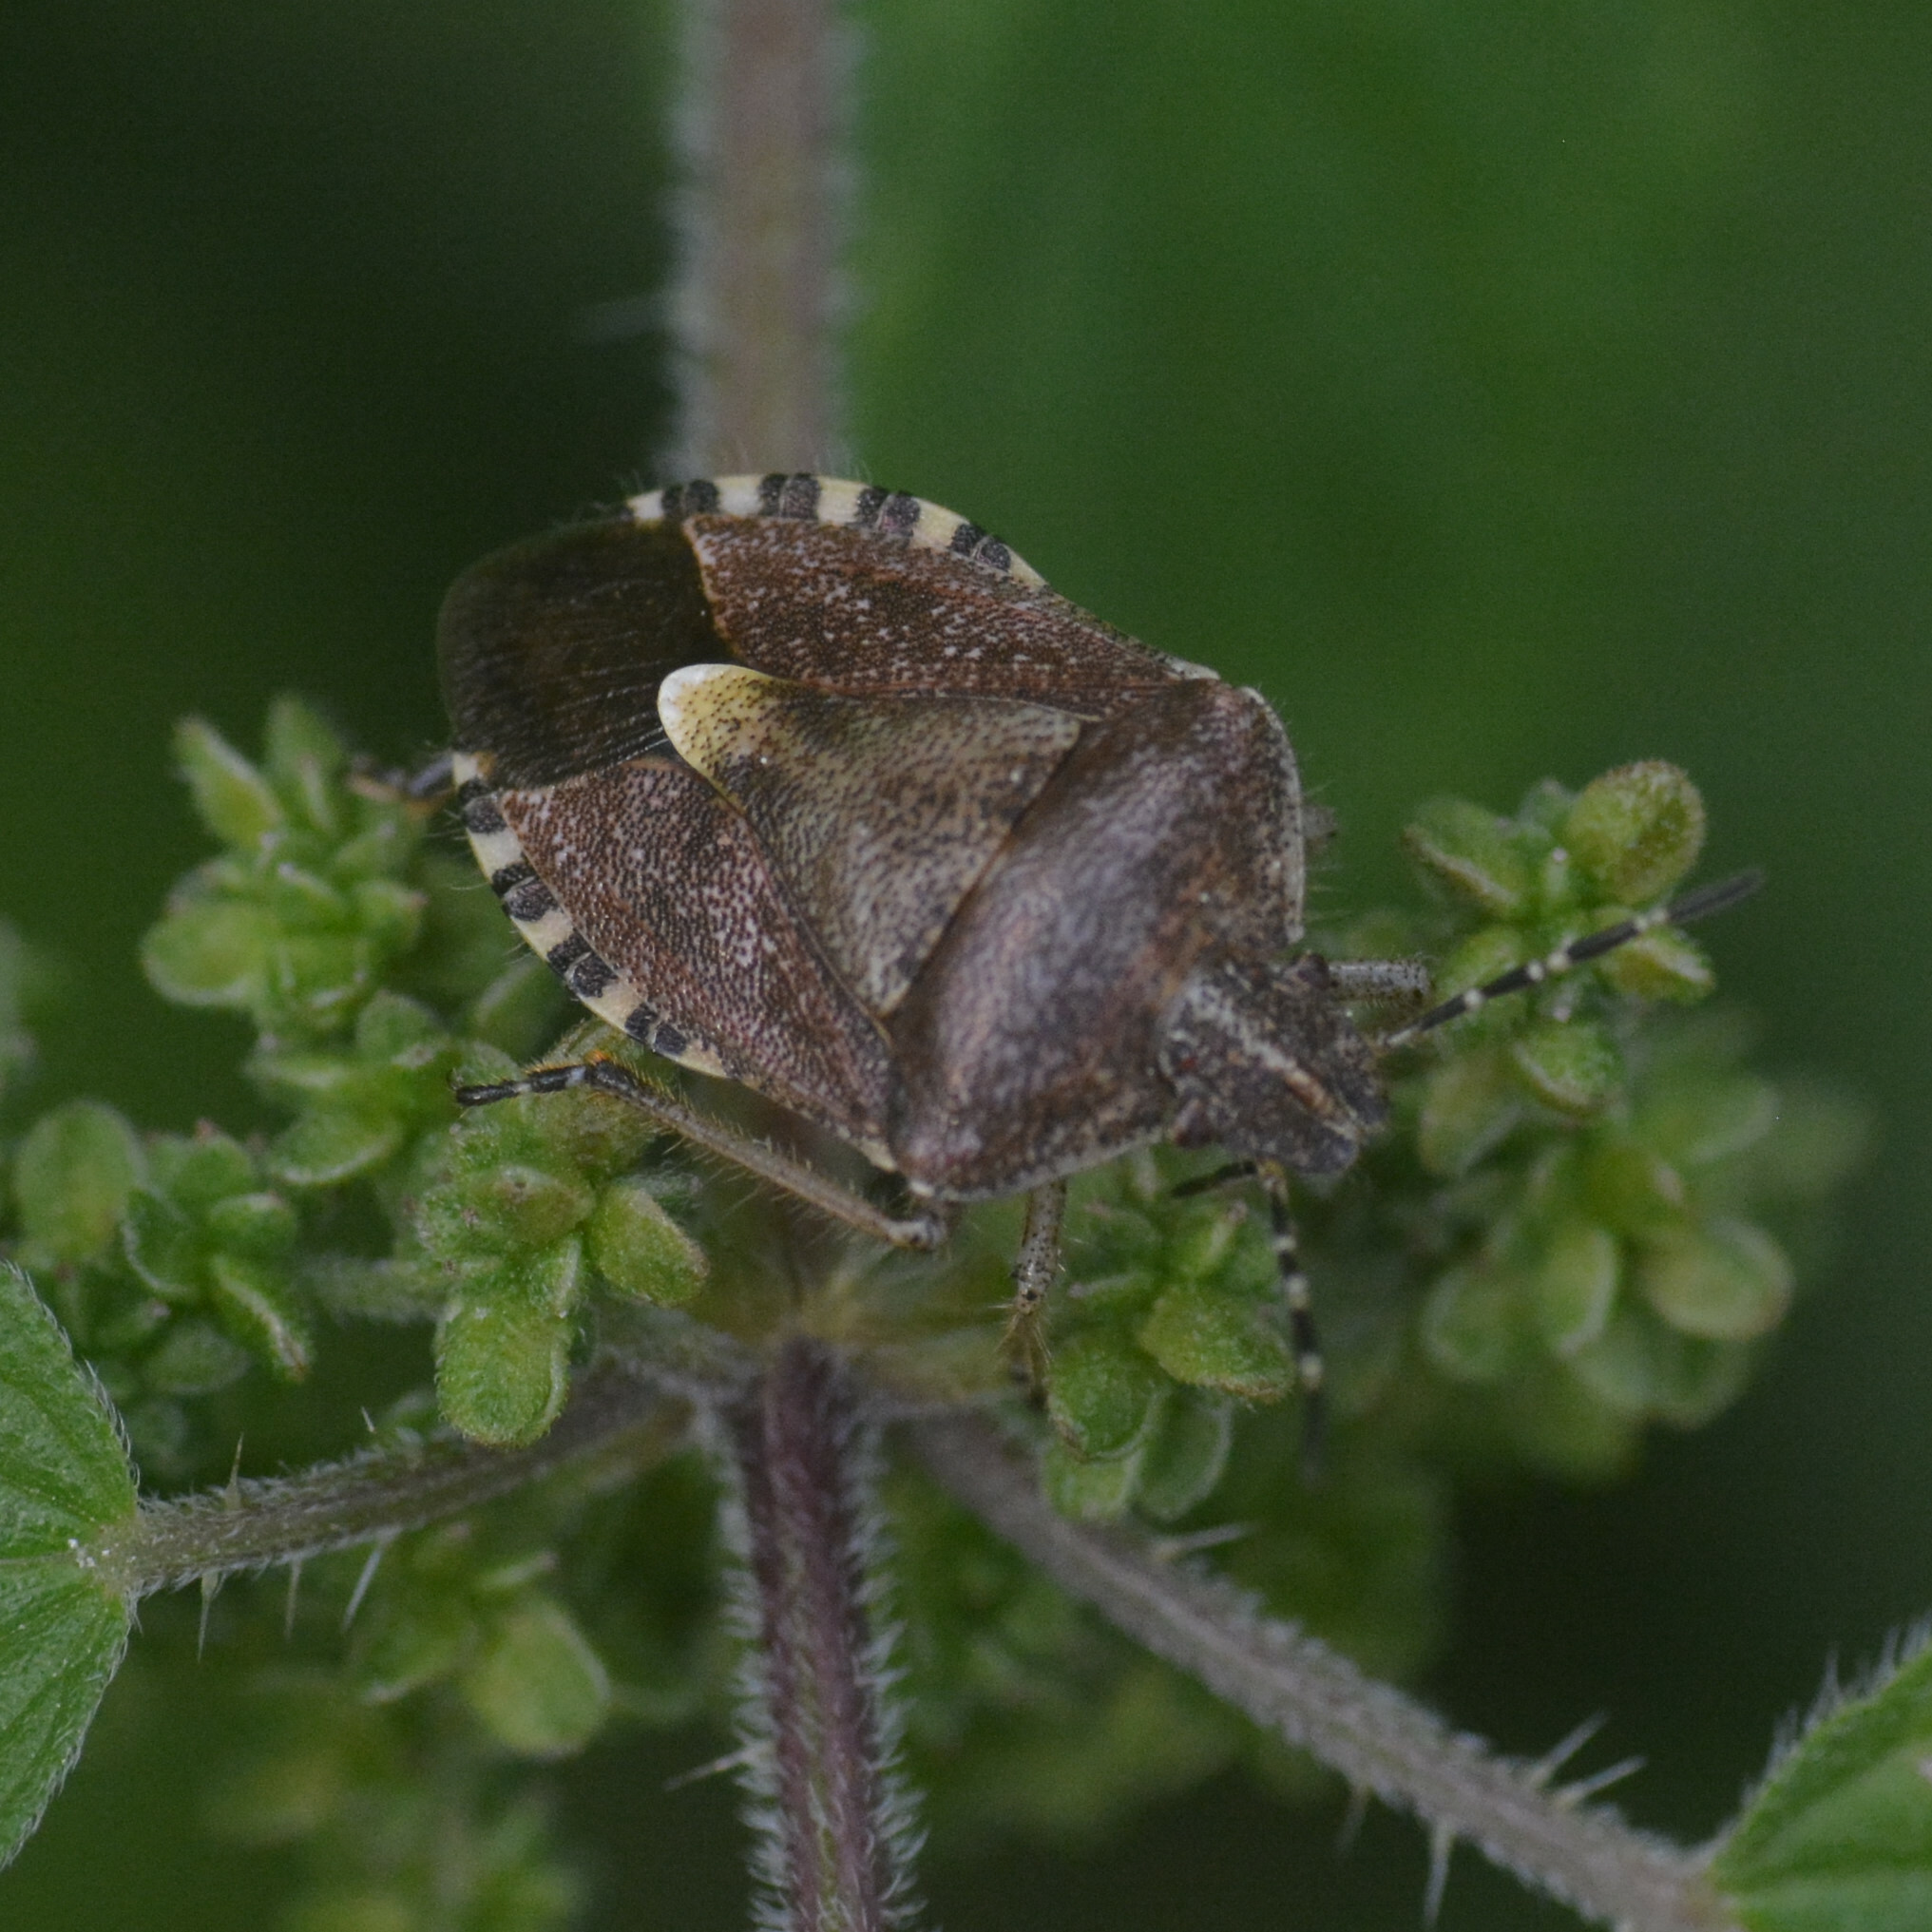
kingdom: Animalia
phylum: Arthropoda
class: Insecta
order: Hemiptera
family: Pentatomidae
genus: Dolycoris
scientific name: Dolycoris baccarum
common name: Sloe bug
